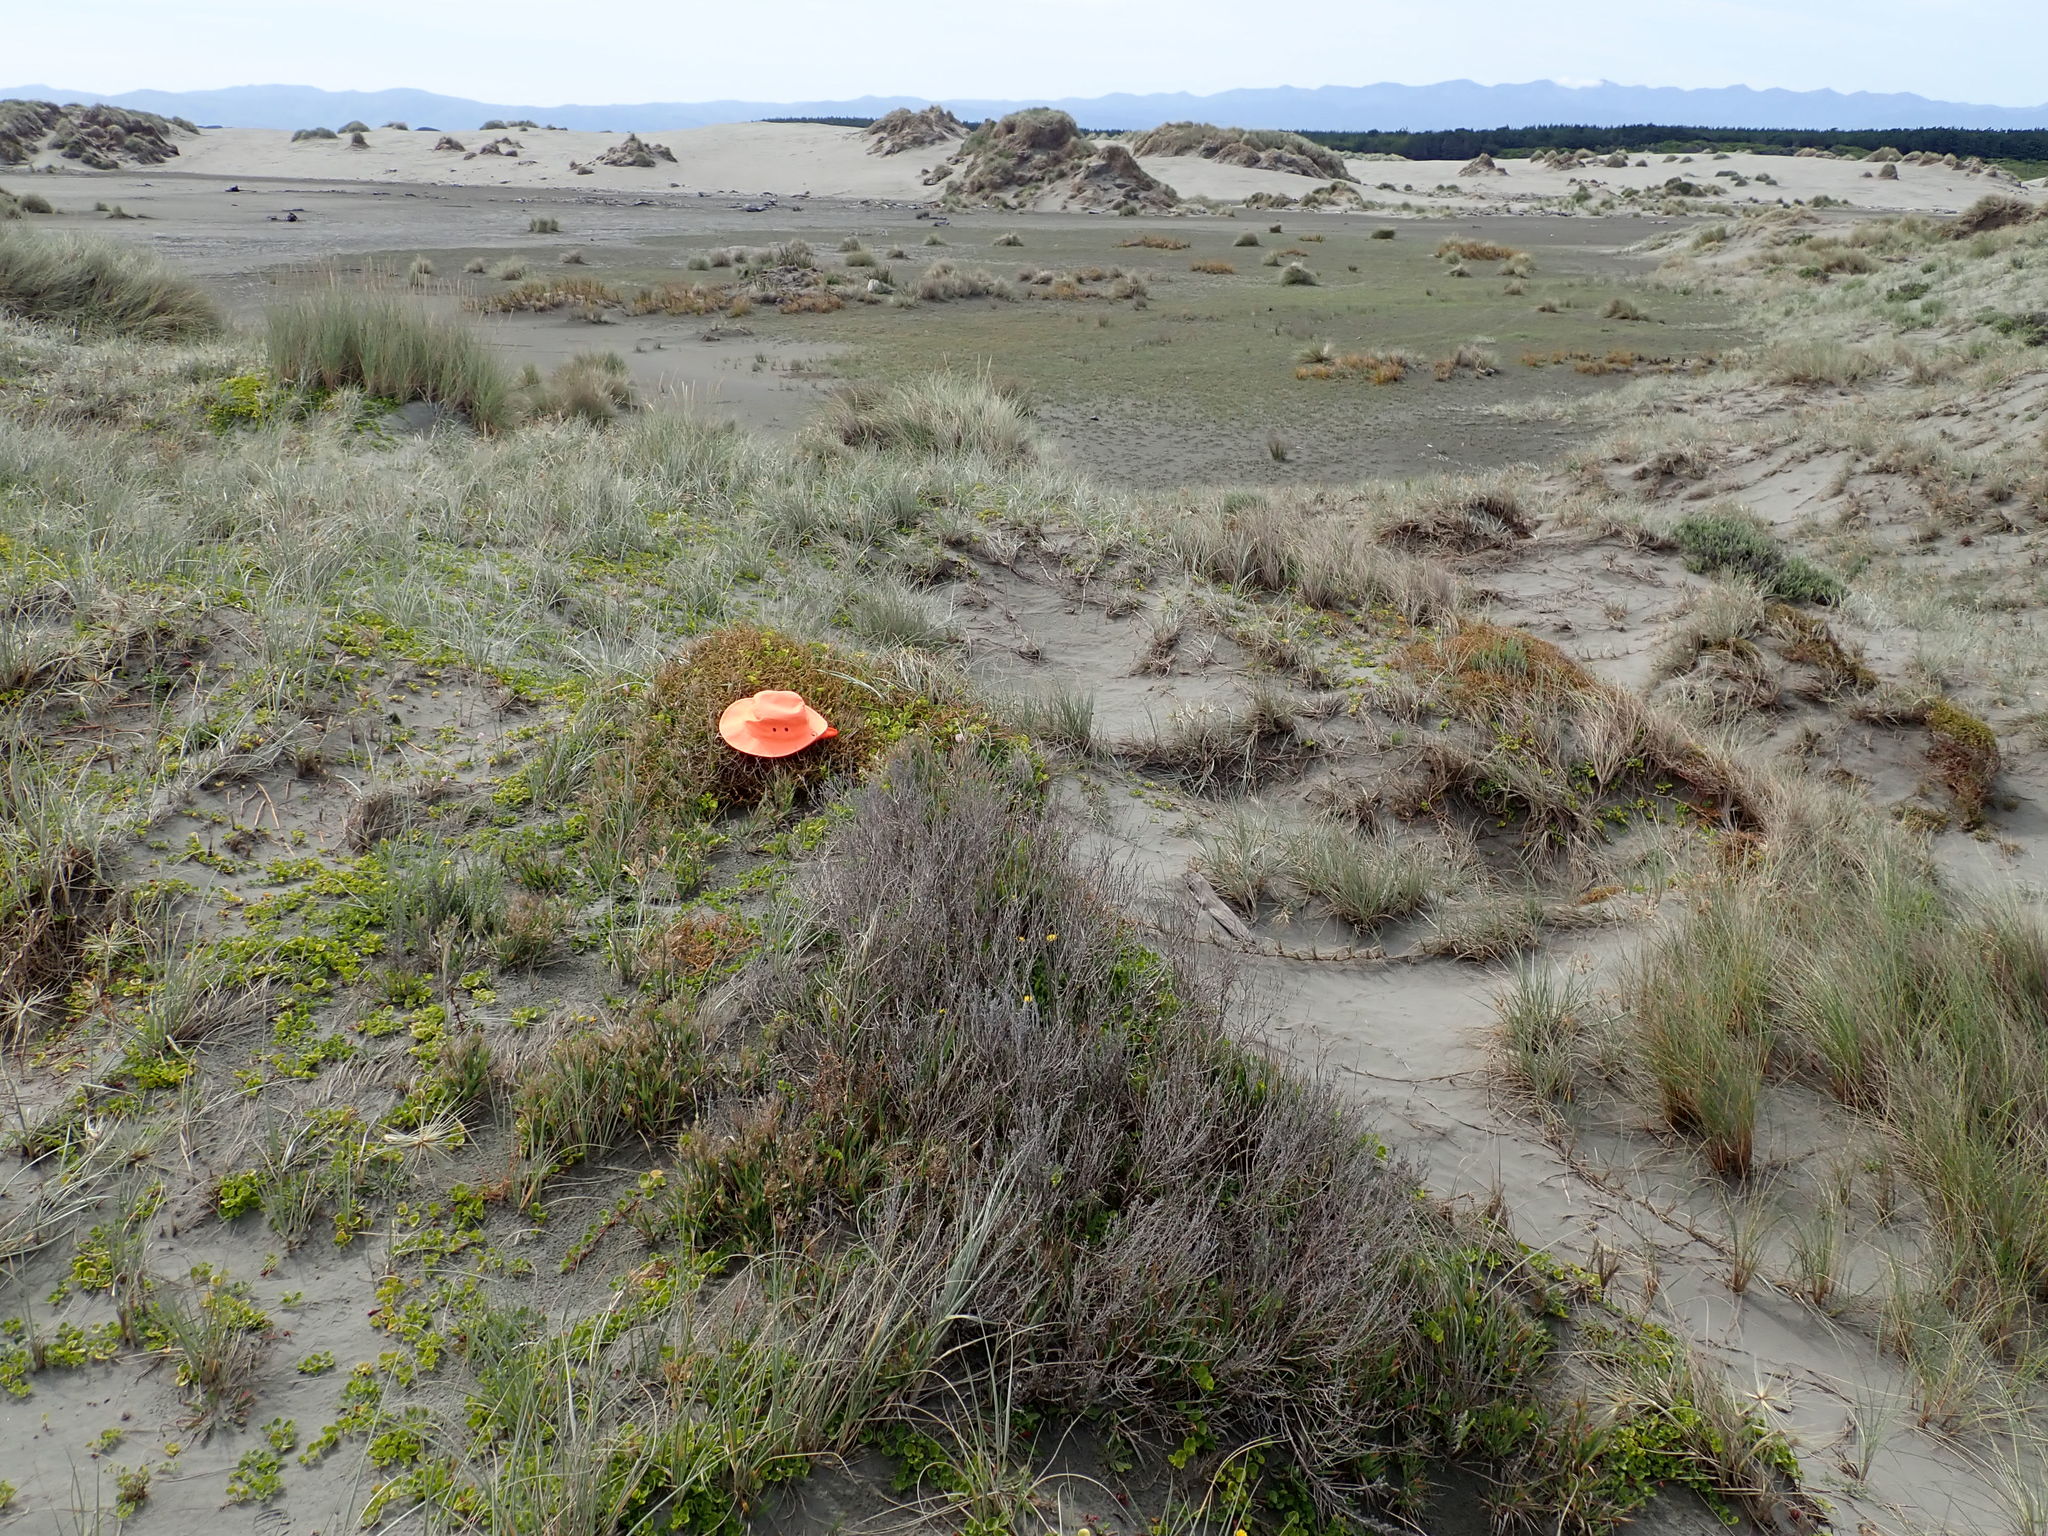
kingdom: Plantae
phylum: Tracheophyta
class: Magnoliopsida
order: Solanales
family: Convolvulaceae
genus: Calystegia
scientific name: Calystegia soldanella
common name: Sea bindweed
